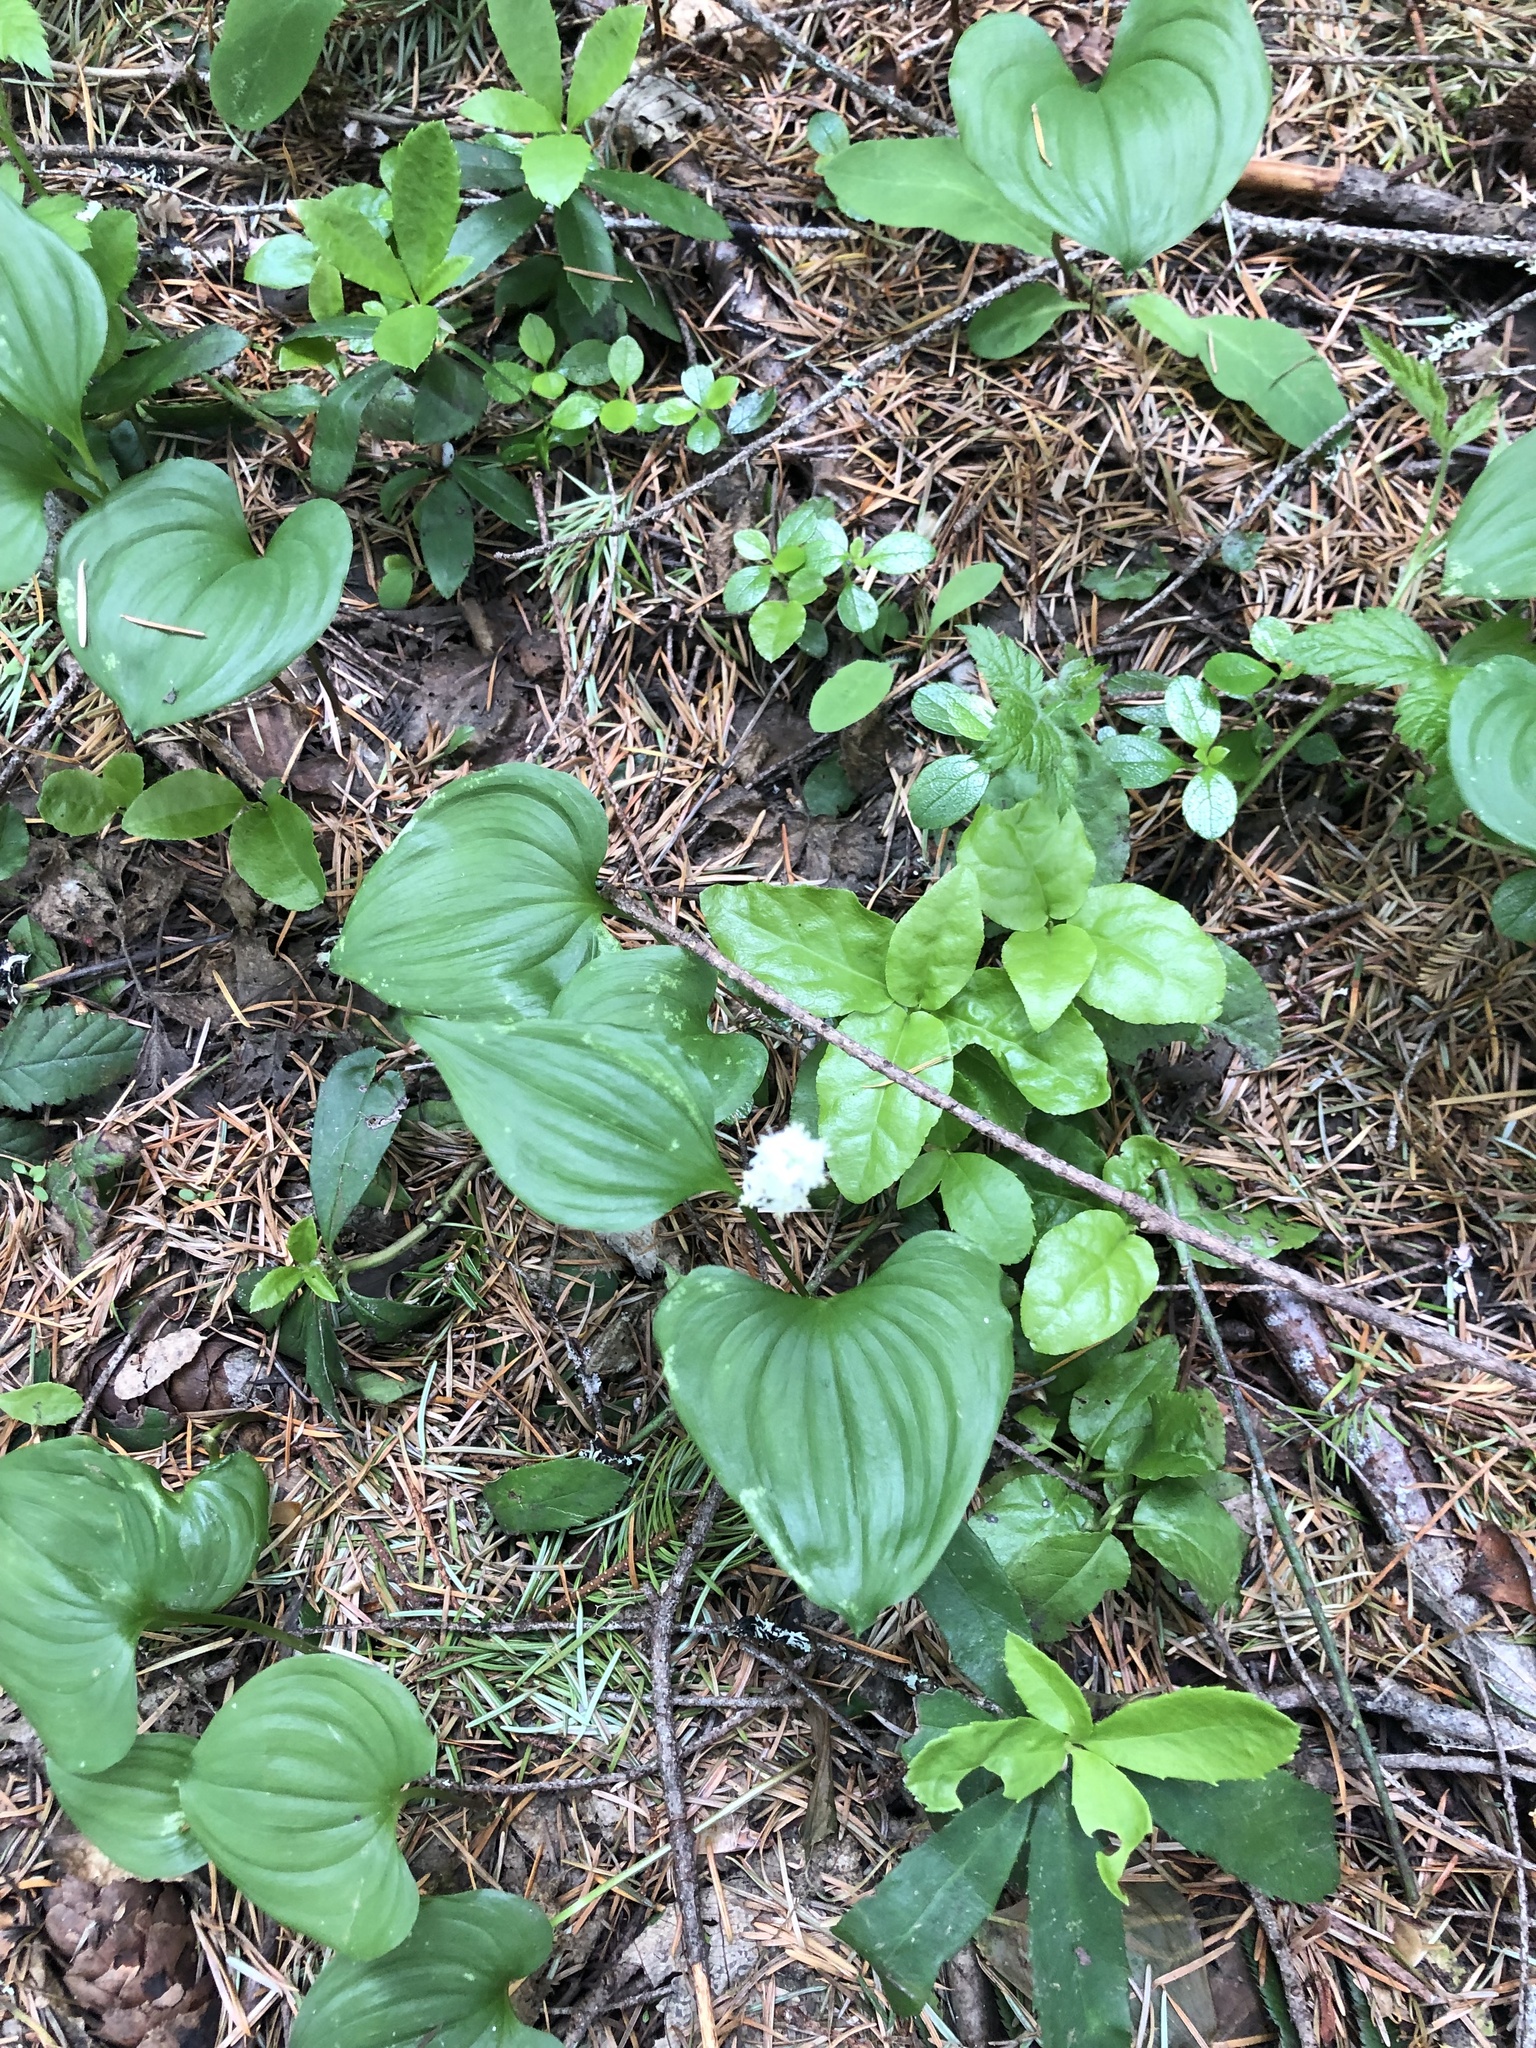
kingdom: Plantae
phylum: Tracheophyta
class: Liliopsida
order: Asparagales
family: Asparagaceae
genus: Maianthemum
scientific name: Maianthemum dilatatum
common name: False lily-of-the-valley
